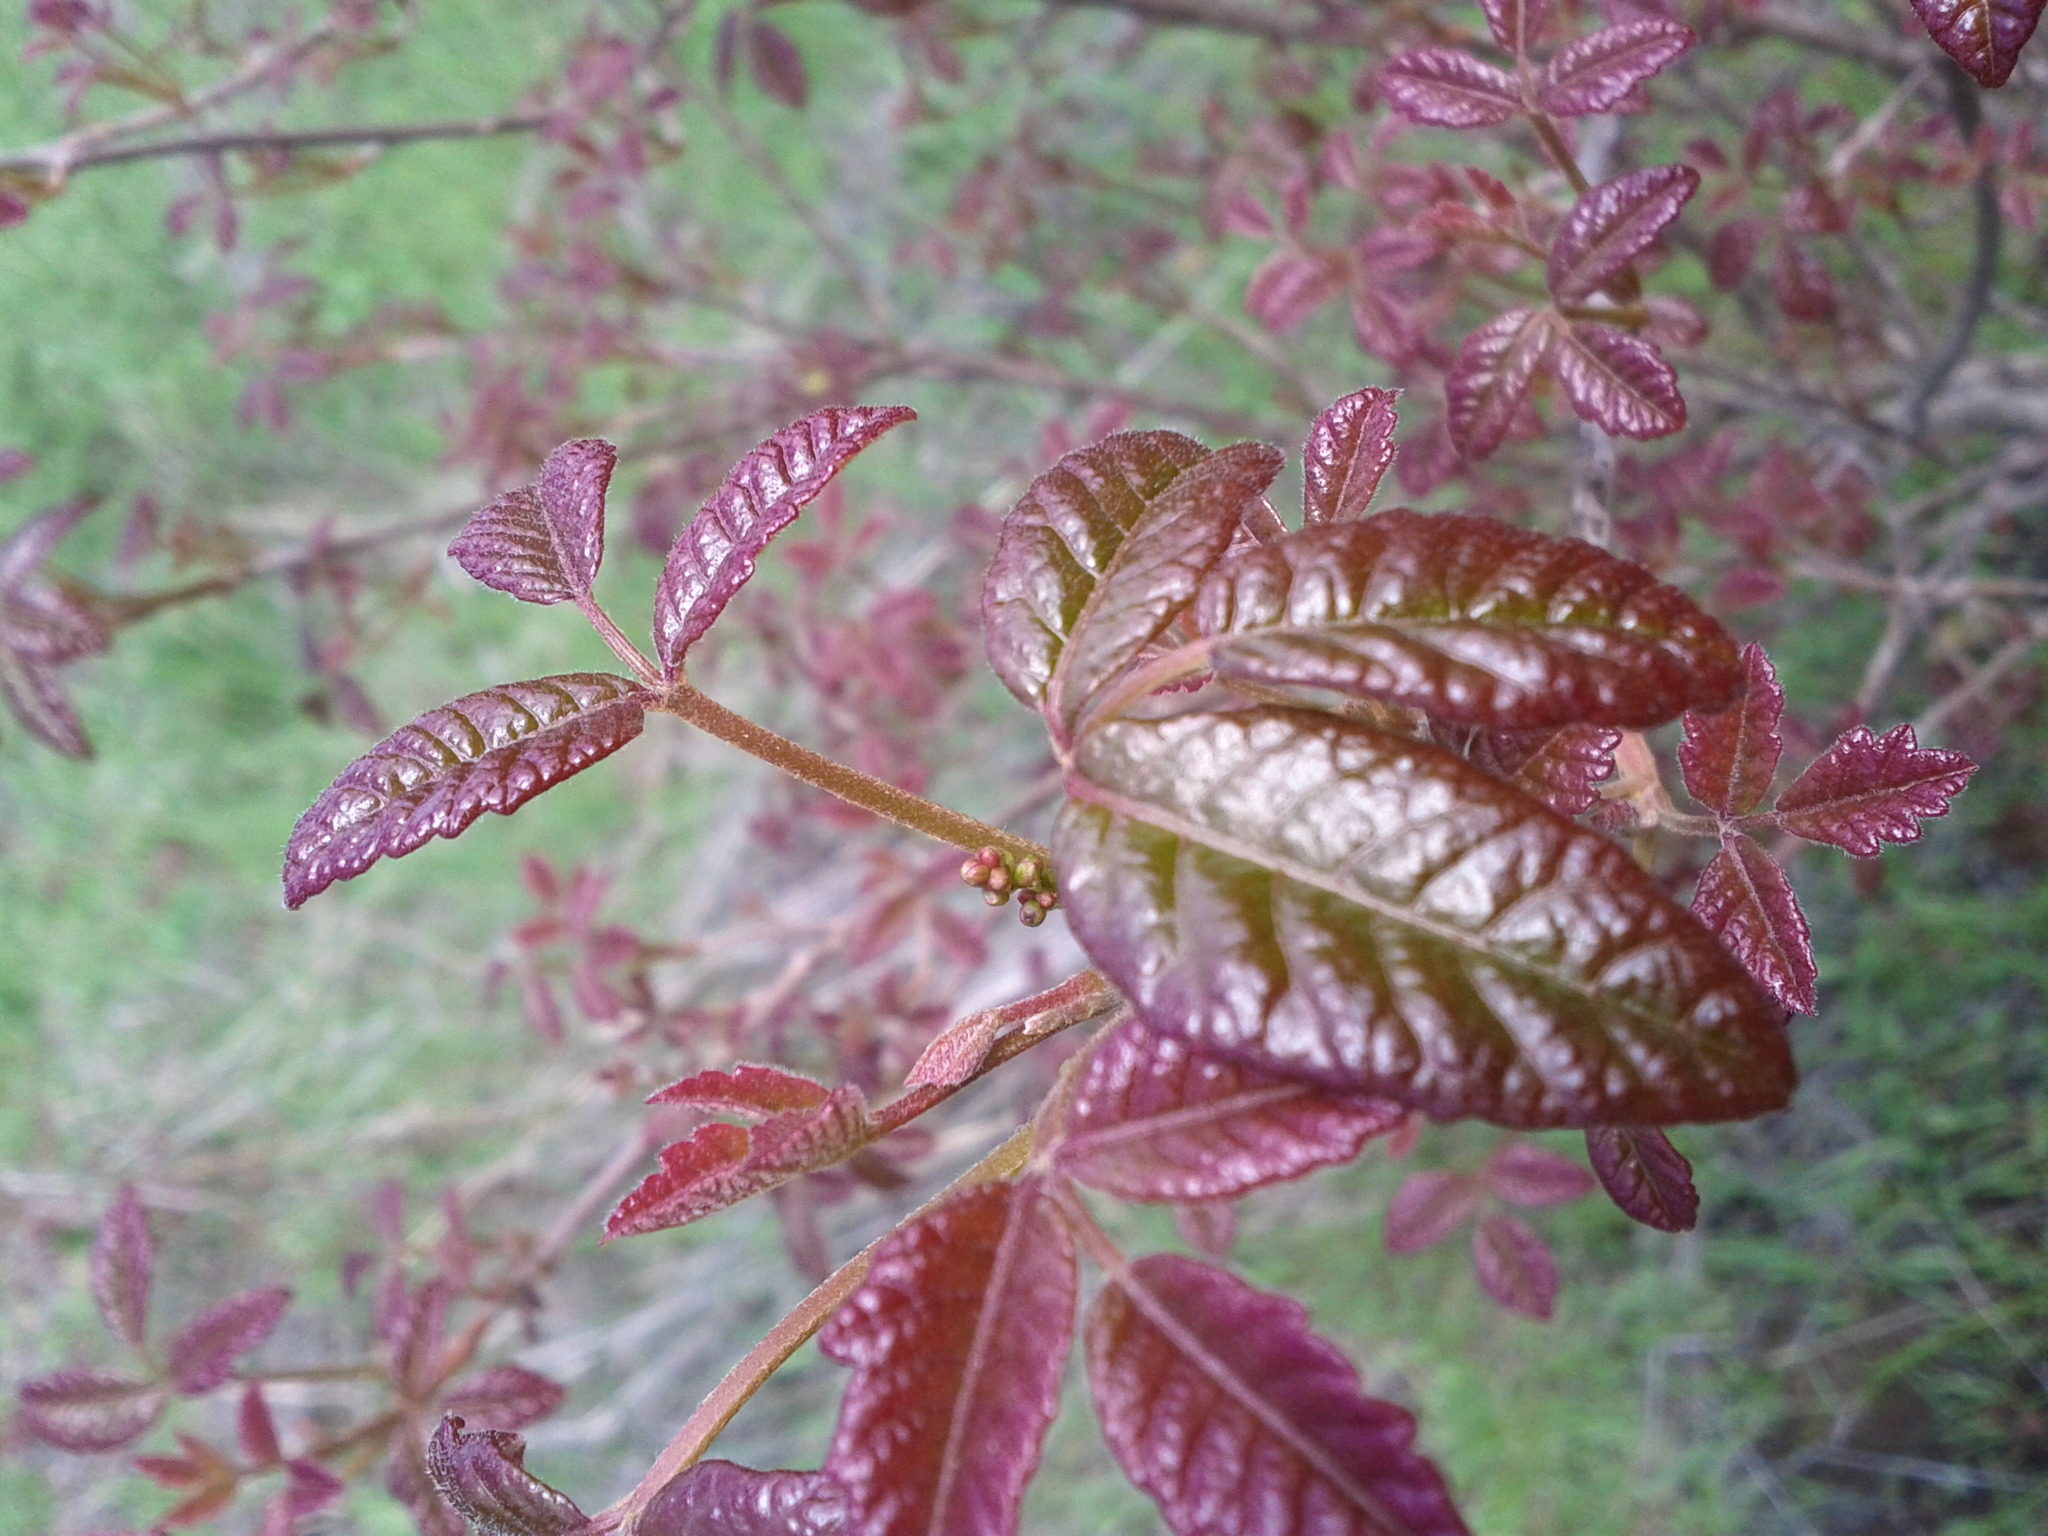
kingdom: Plantae
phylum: Tracheophyta
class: Magnoliopsida
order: Sapindales
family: Anacardiaceae
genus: Toxicodendron
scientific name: Toxicodendron diversilobum
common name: Pacific poison-oak
